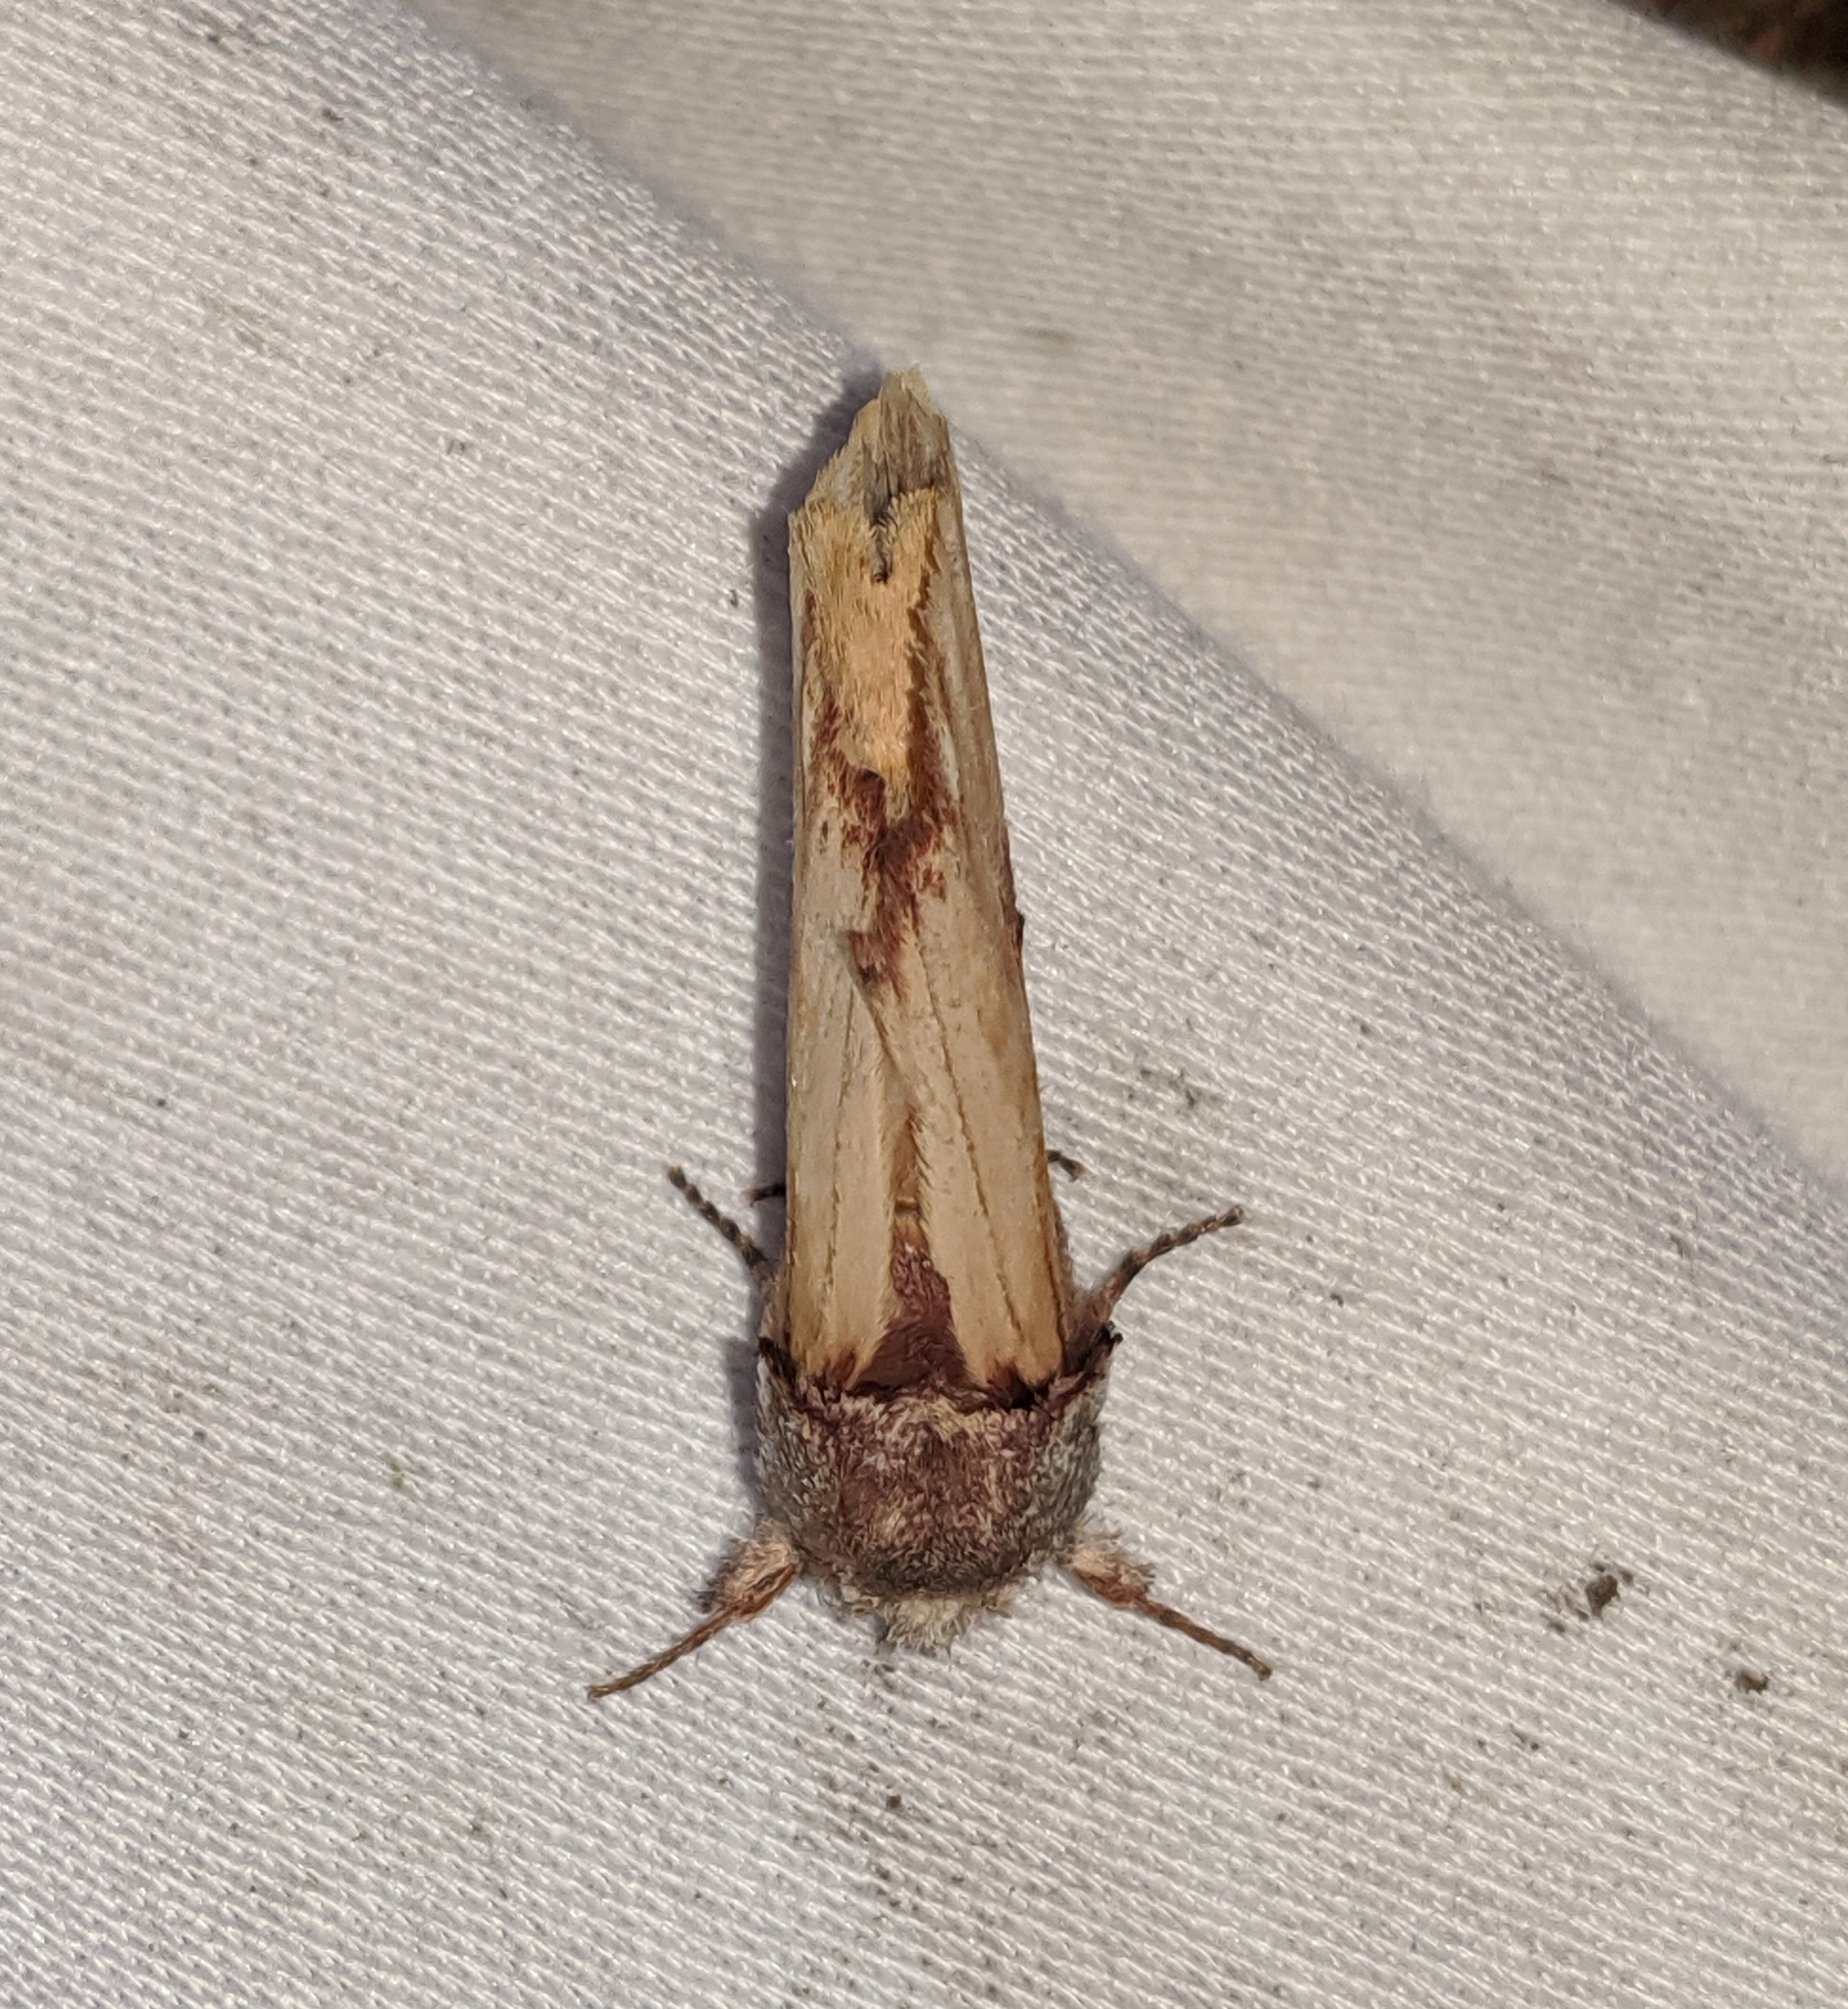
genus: Ianassa
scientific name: Ianassa
